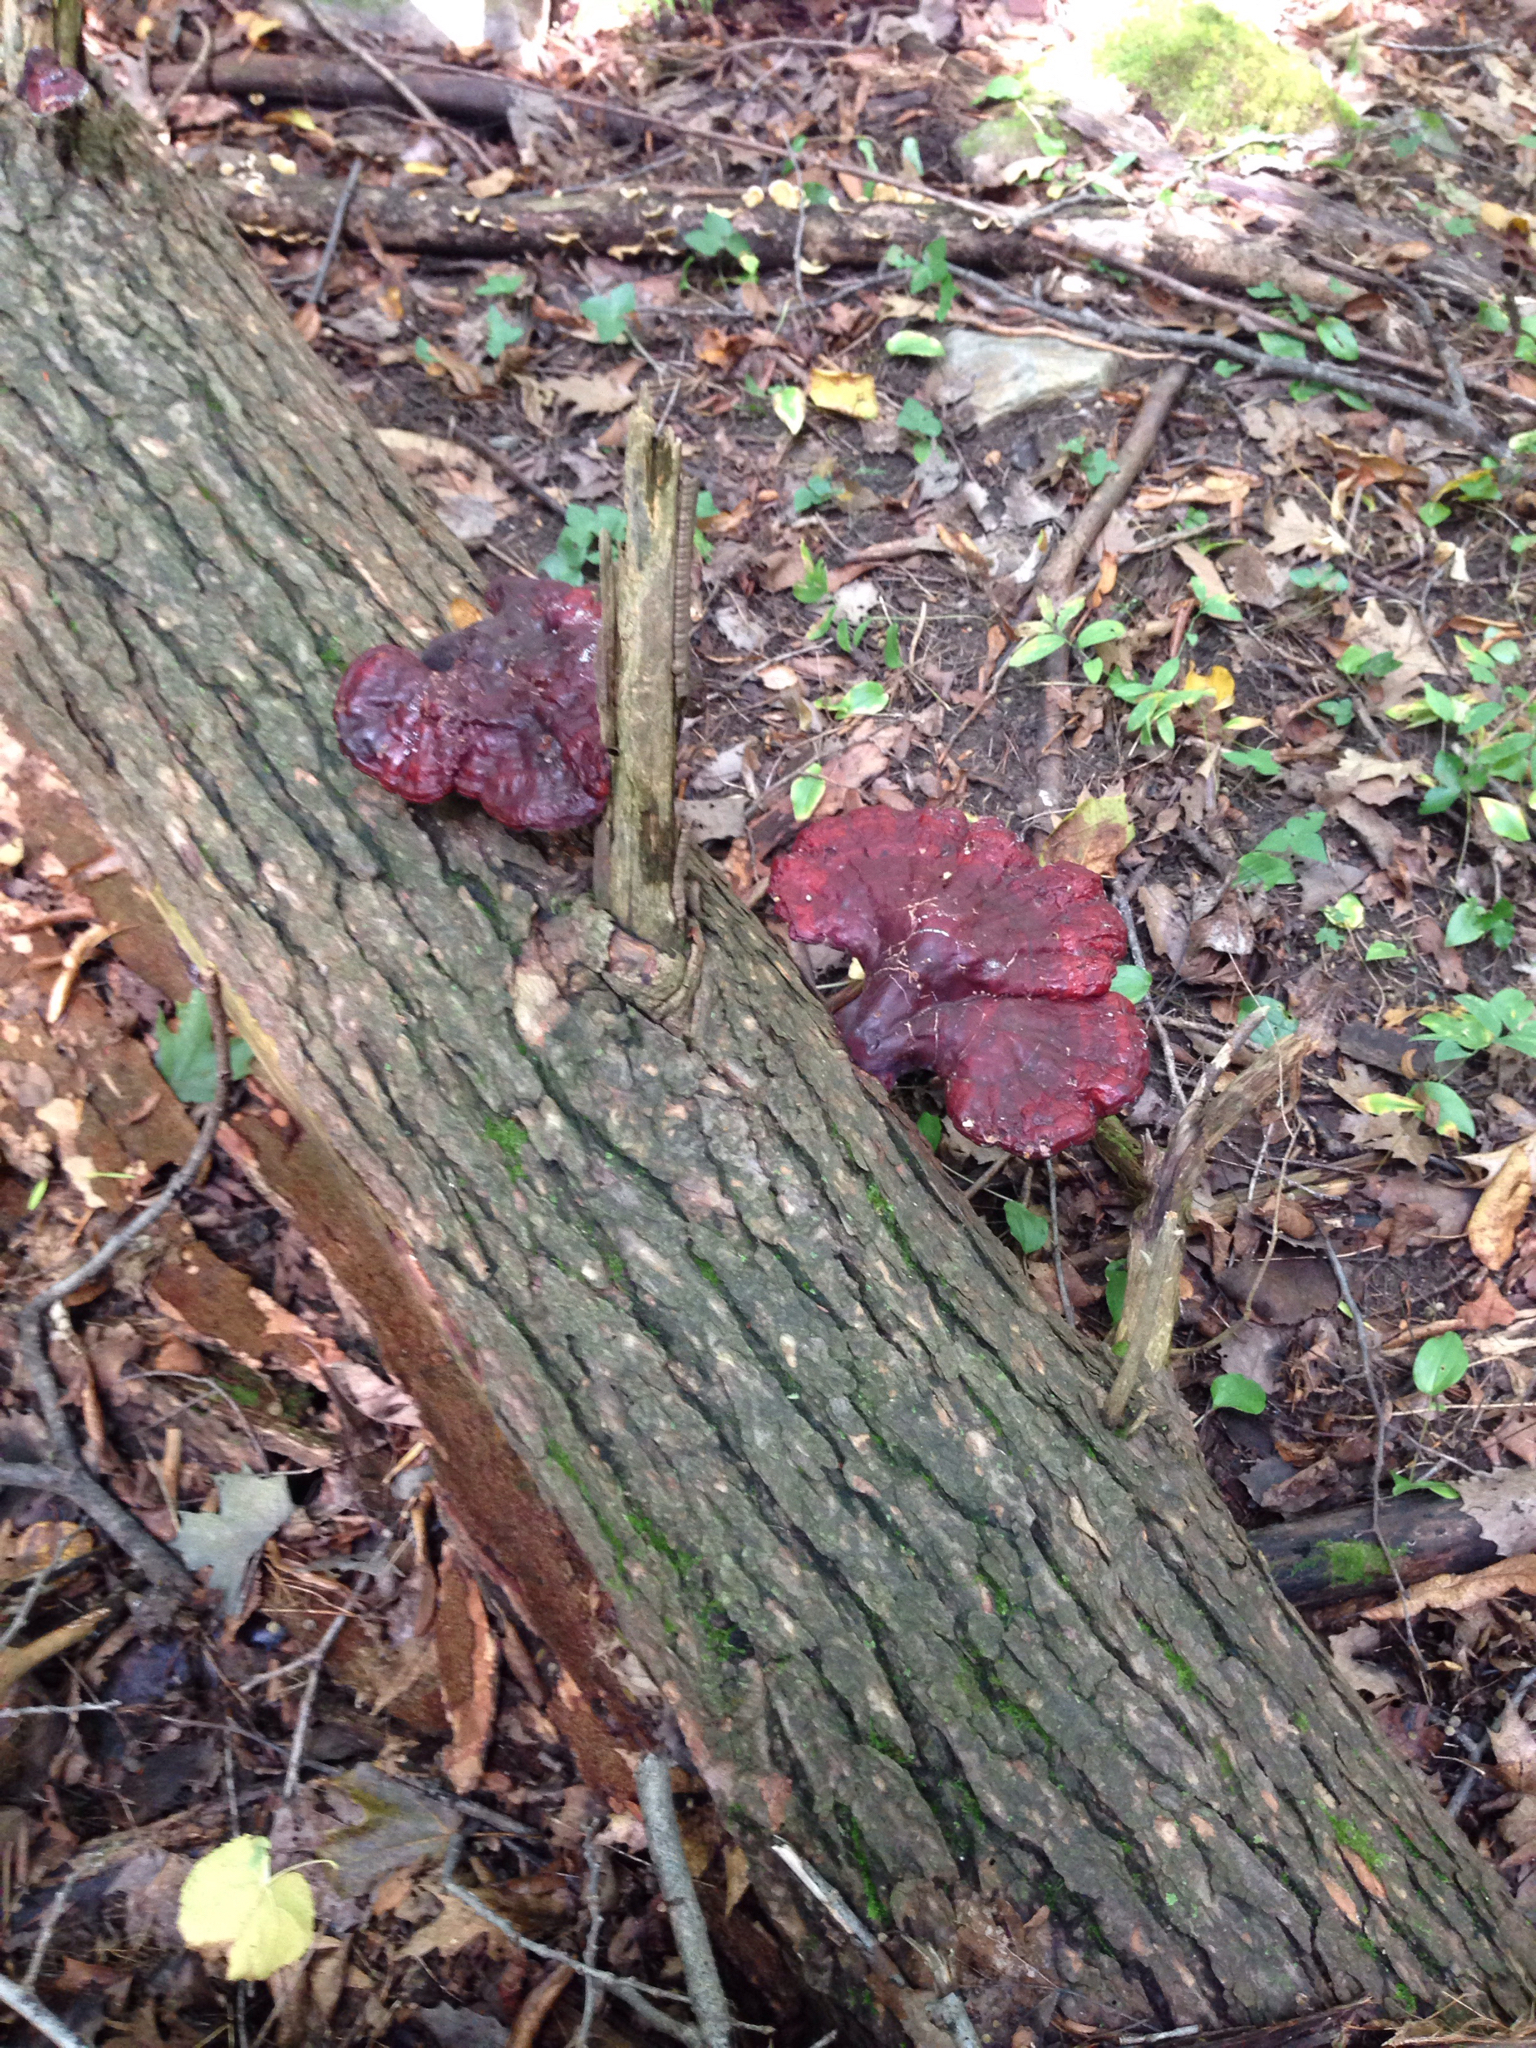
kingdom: Fungi
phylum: Basidiomycota
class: Agaricomycetes
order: Polyporales
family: Polyporaceae
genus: Ganoderma
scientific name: Ganoderma tsugae
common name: Hemlock varnish shelf
